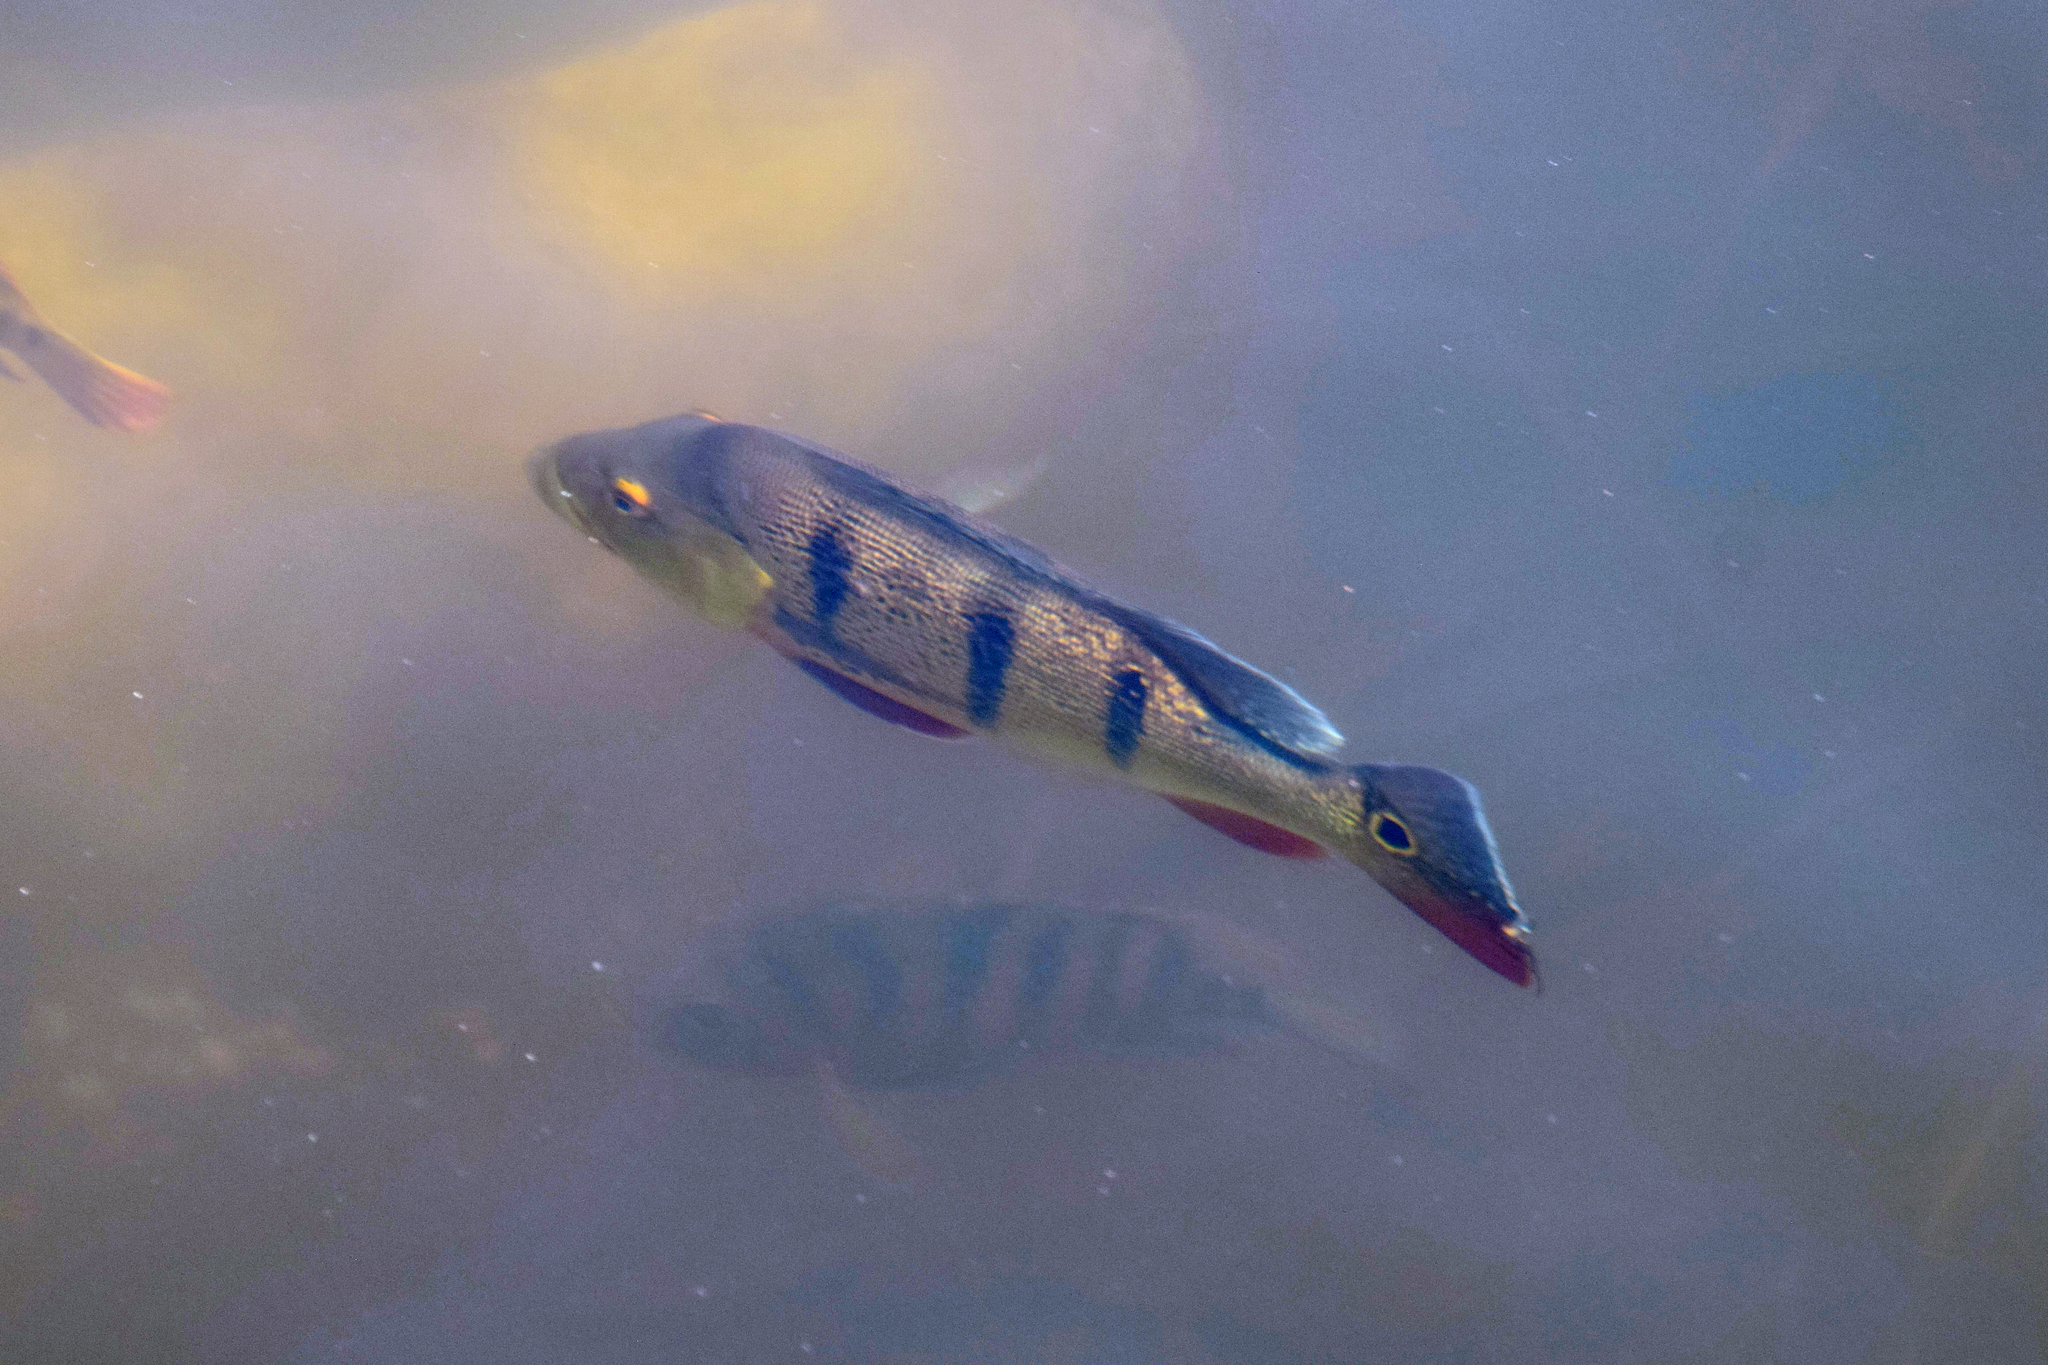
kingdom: Animalia
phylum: Chordata
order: Perciformes
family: Cichlidae
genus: Cichla
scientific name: Cichla ocellaris
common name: Peacock cichlid
